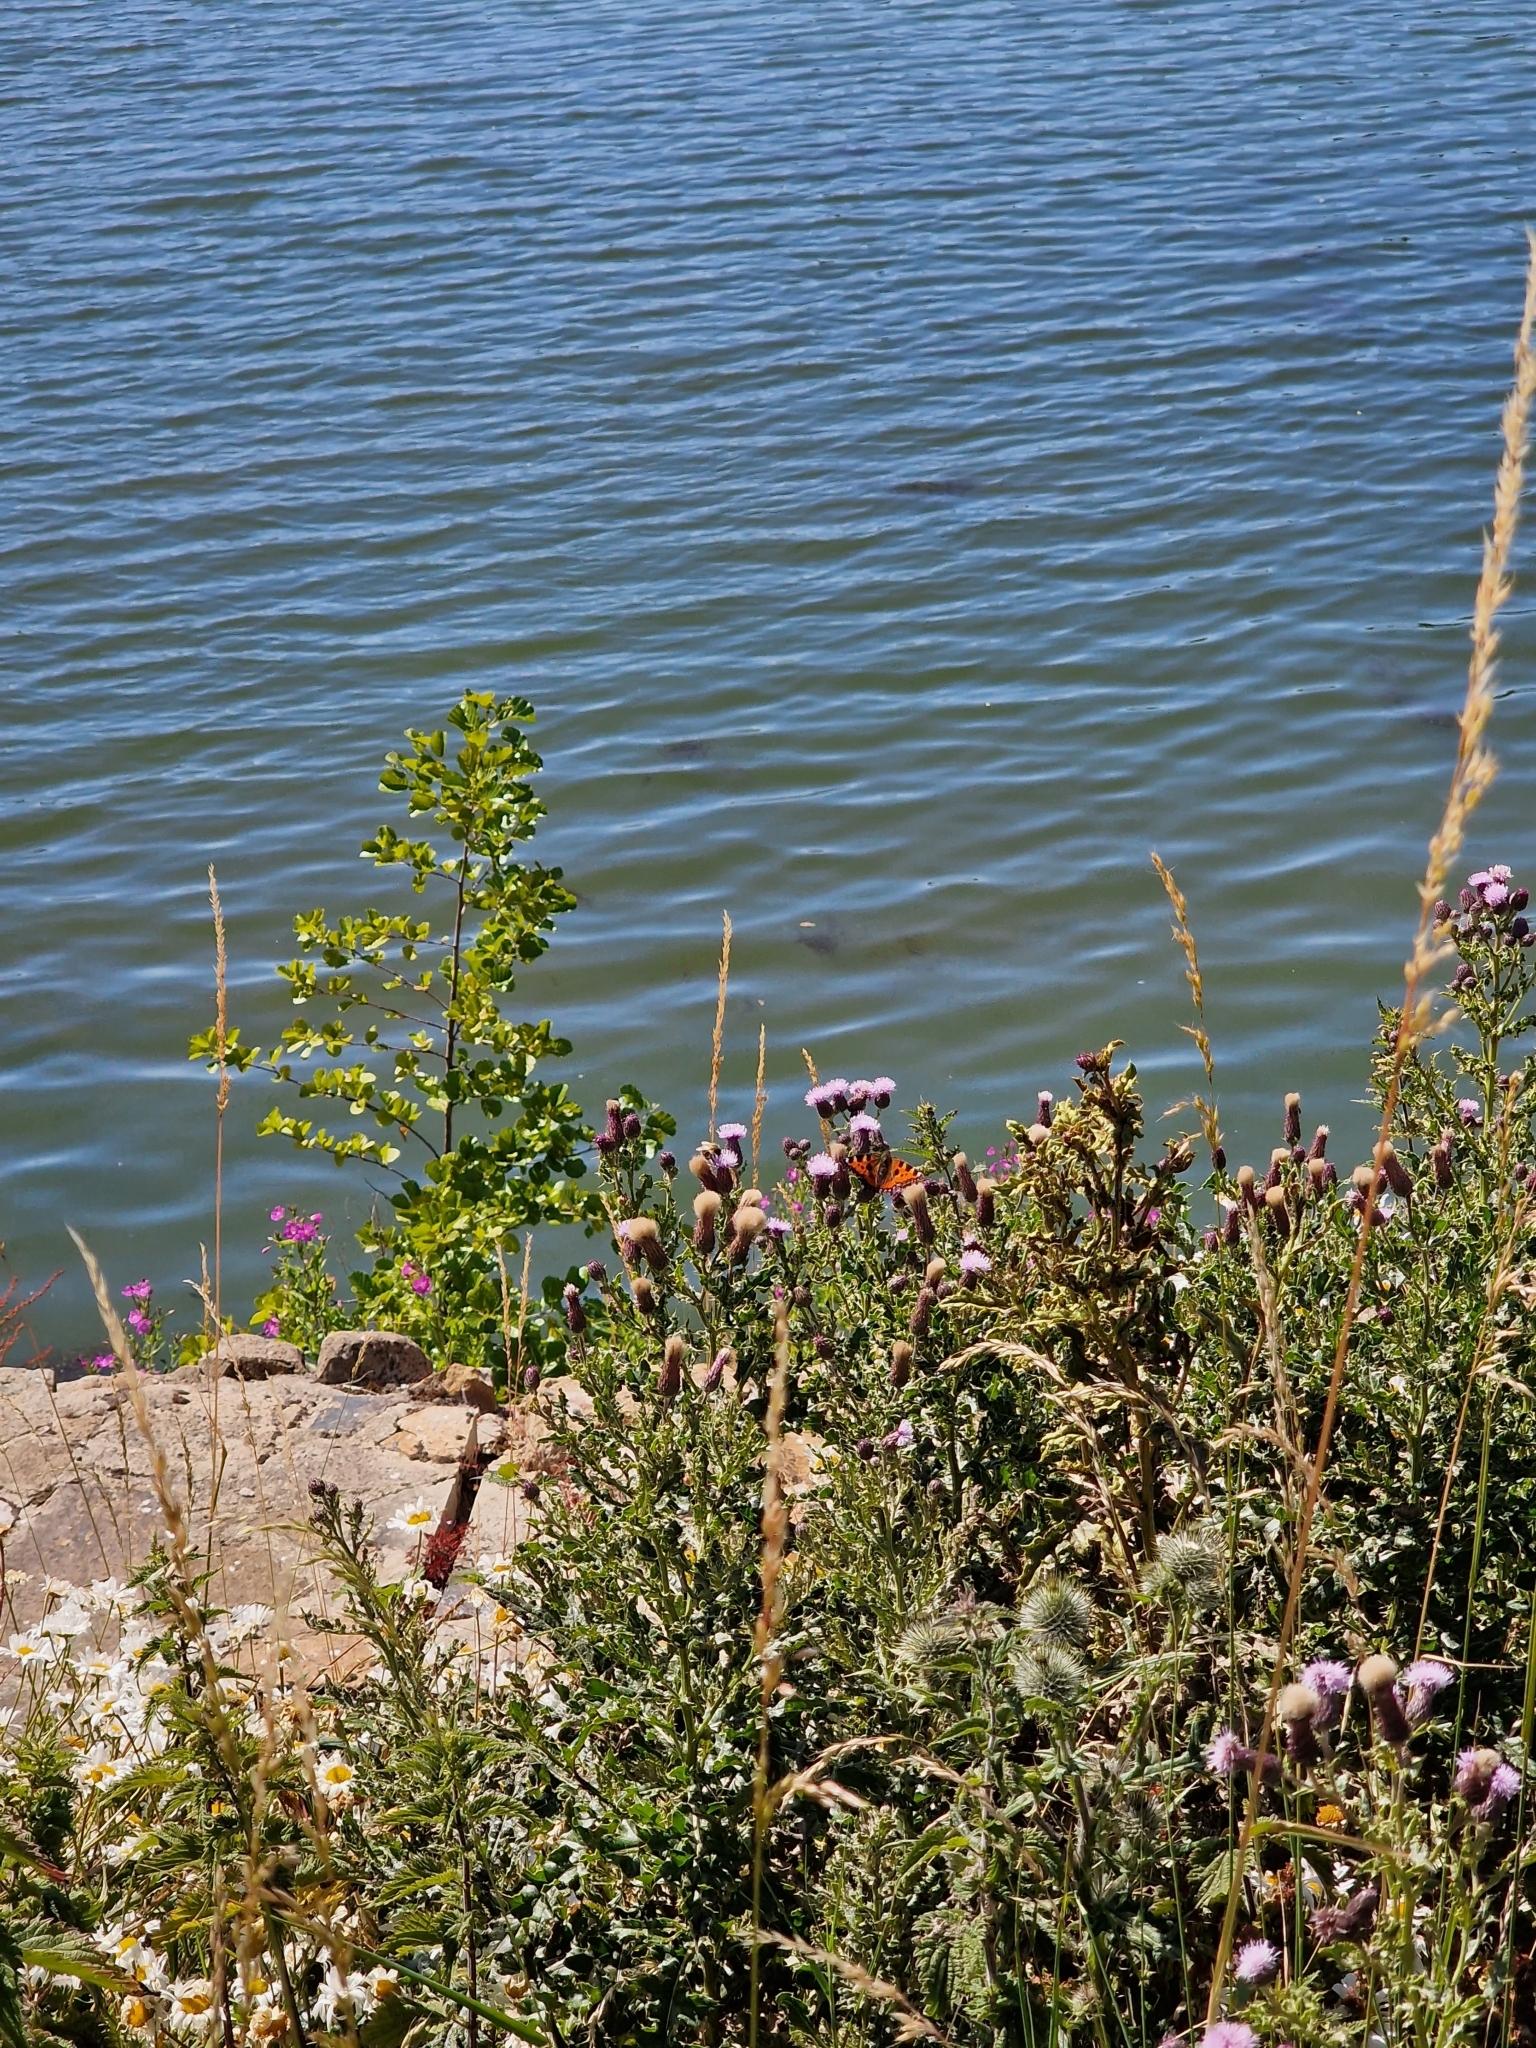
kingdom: Animalia
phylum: Arthropoda
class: Insecta
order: Lepidoptera
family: Nymphalidae
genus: Aglais
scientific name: Aglais urticae
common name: Small tortoiseshell
